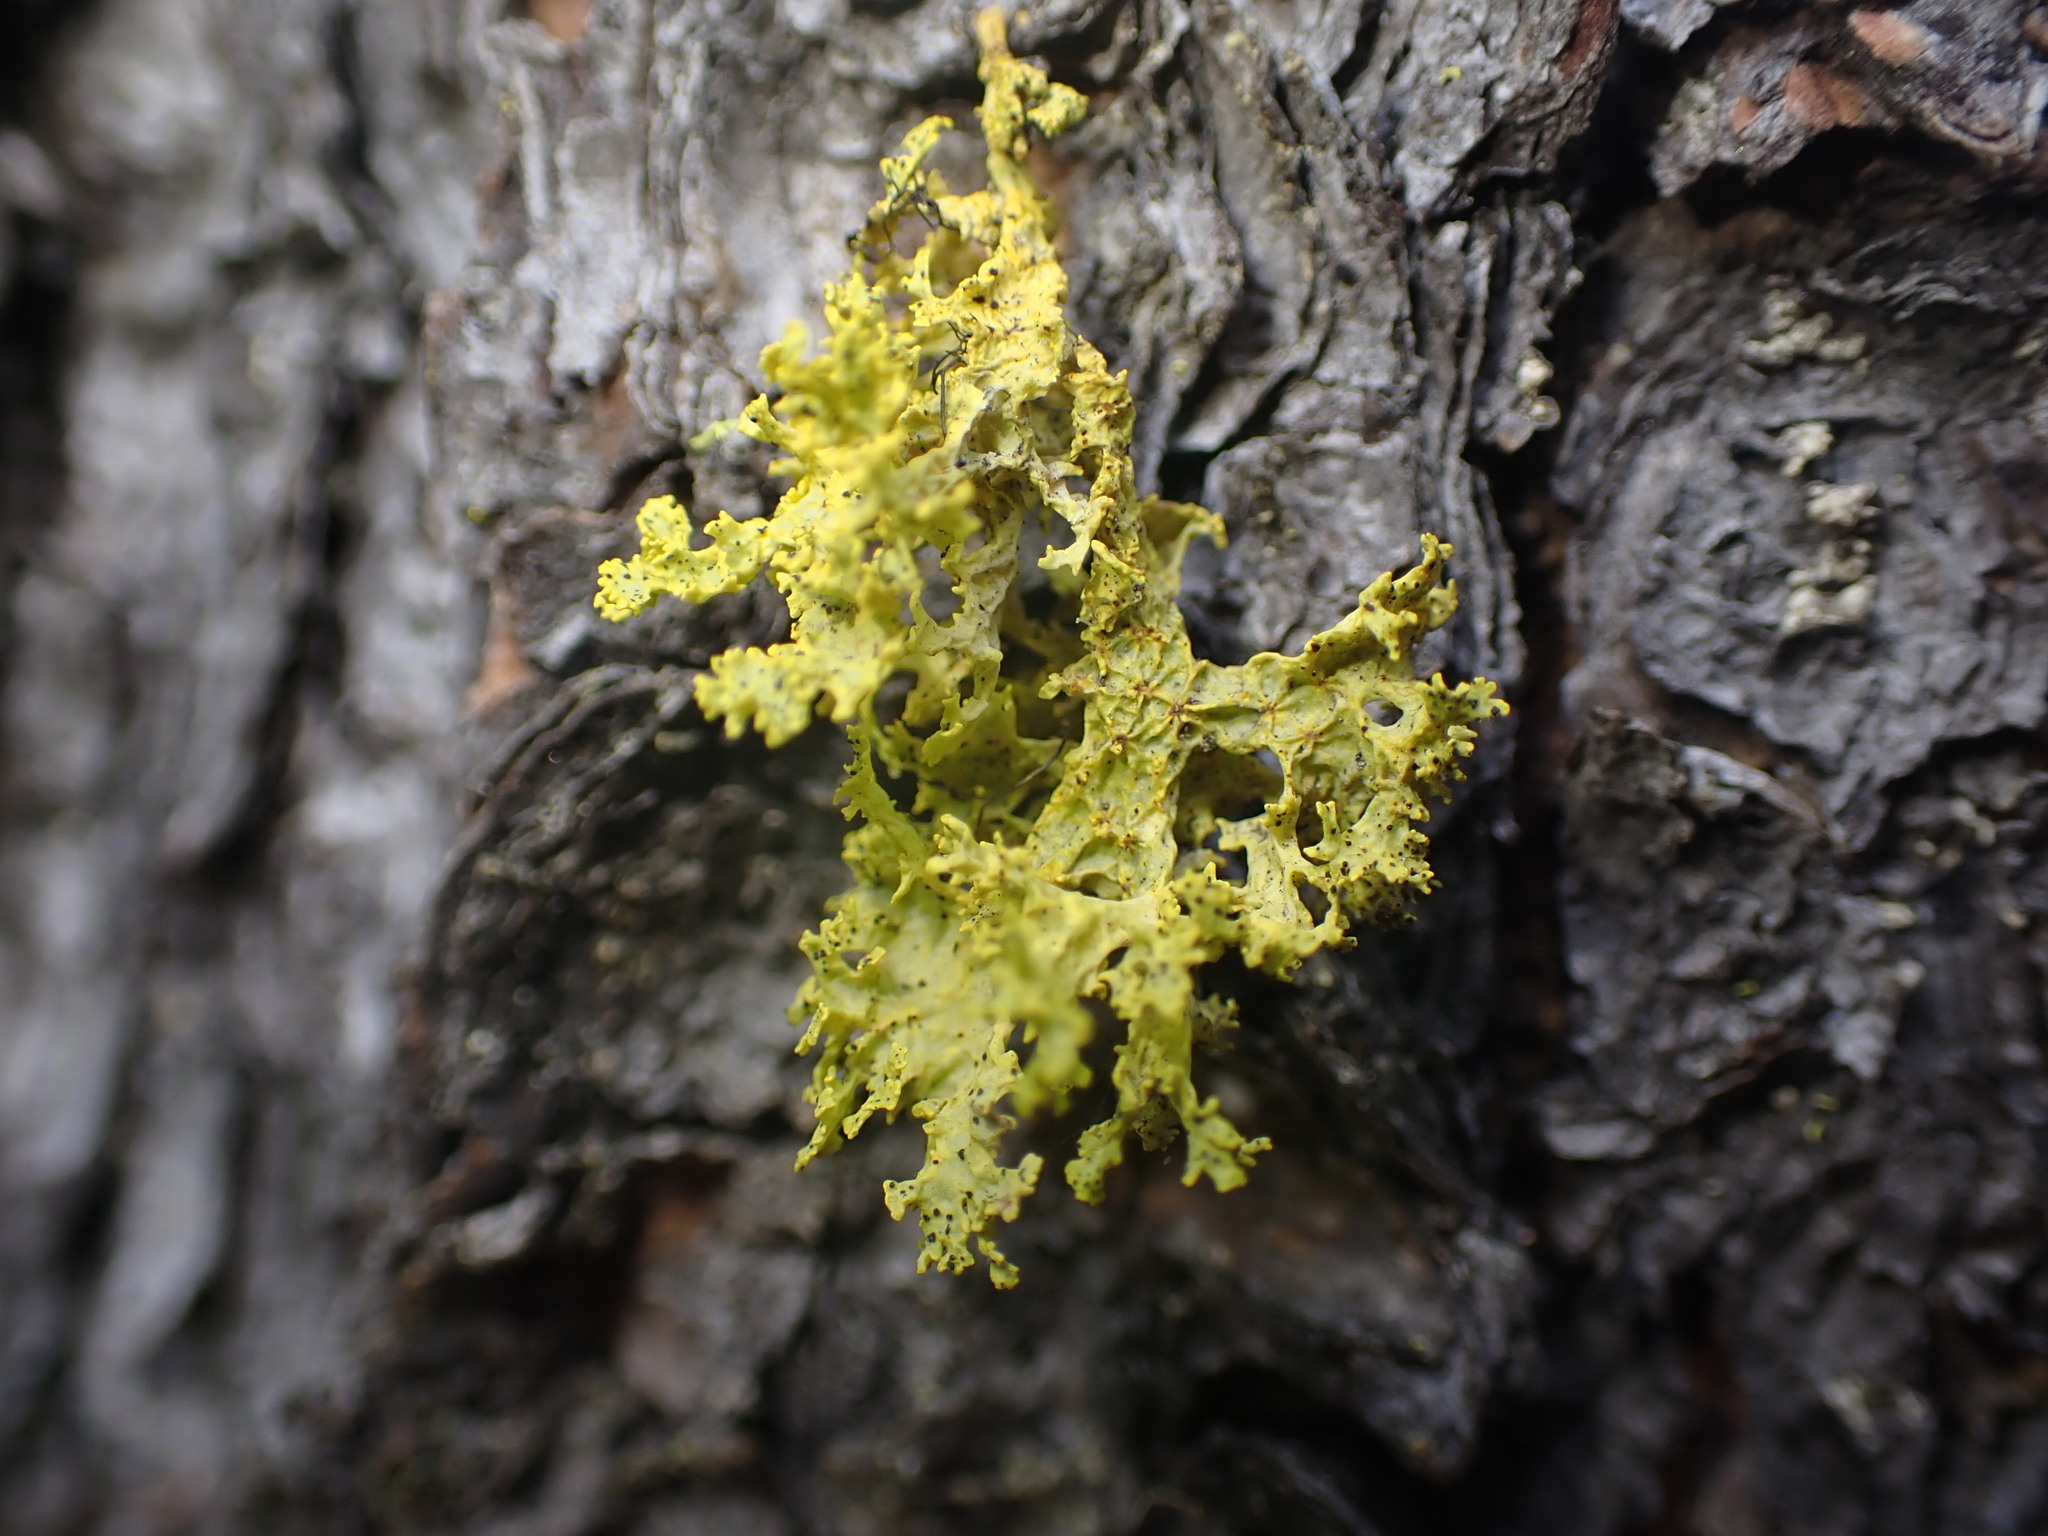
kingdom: Fungi
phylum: Ascomycota
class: Lecanoromycetes
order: Lecanorales
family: Parmeliaceae
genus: Vulpicida
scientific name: Vulpicida canadensis
